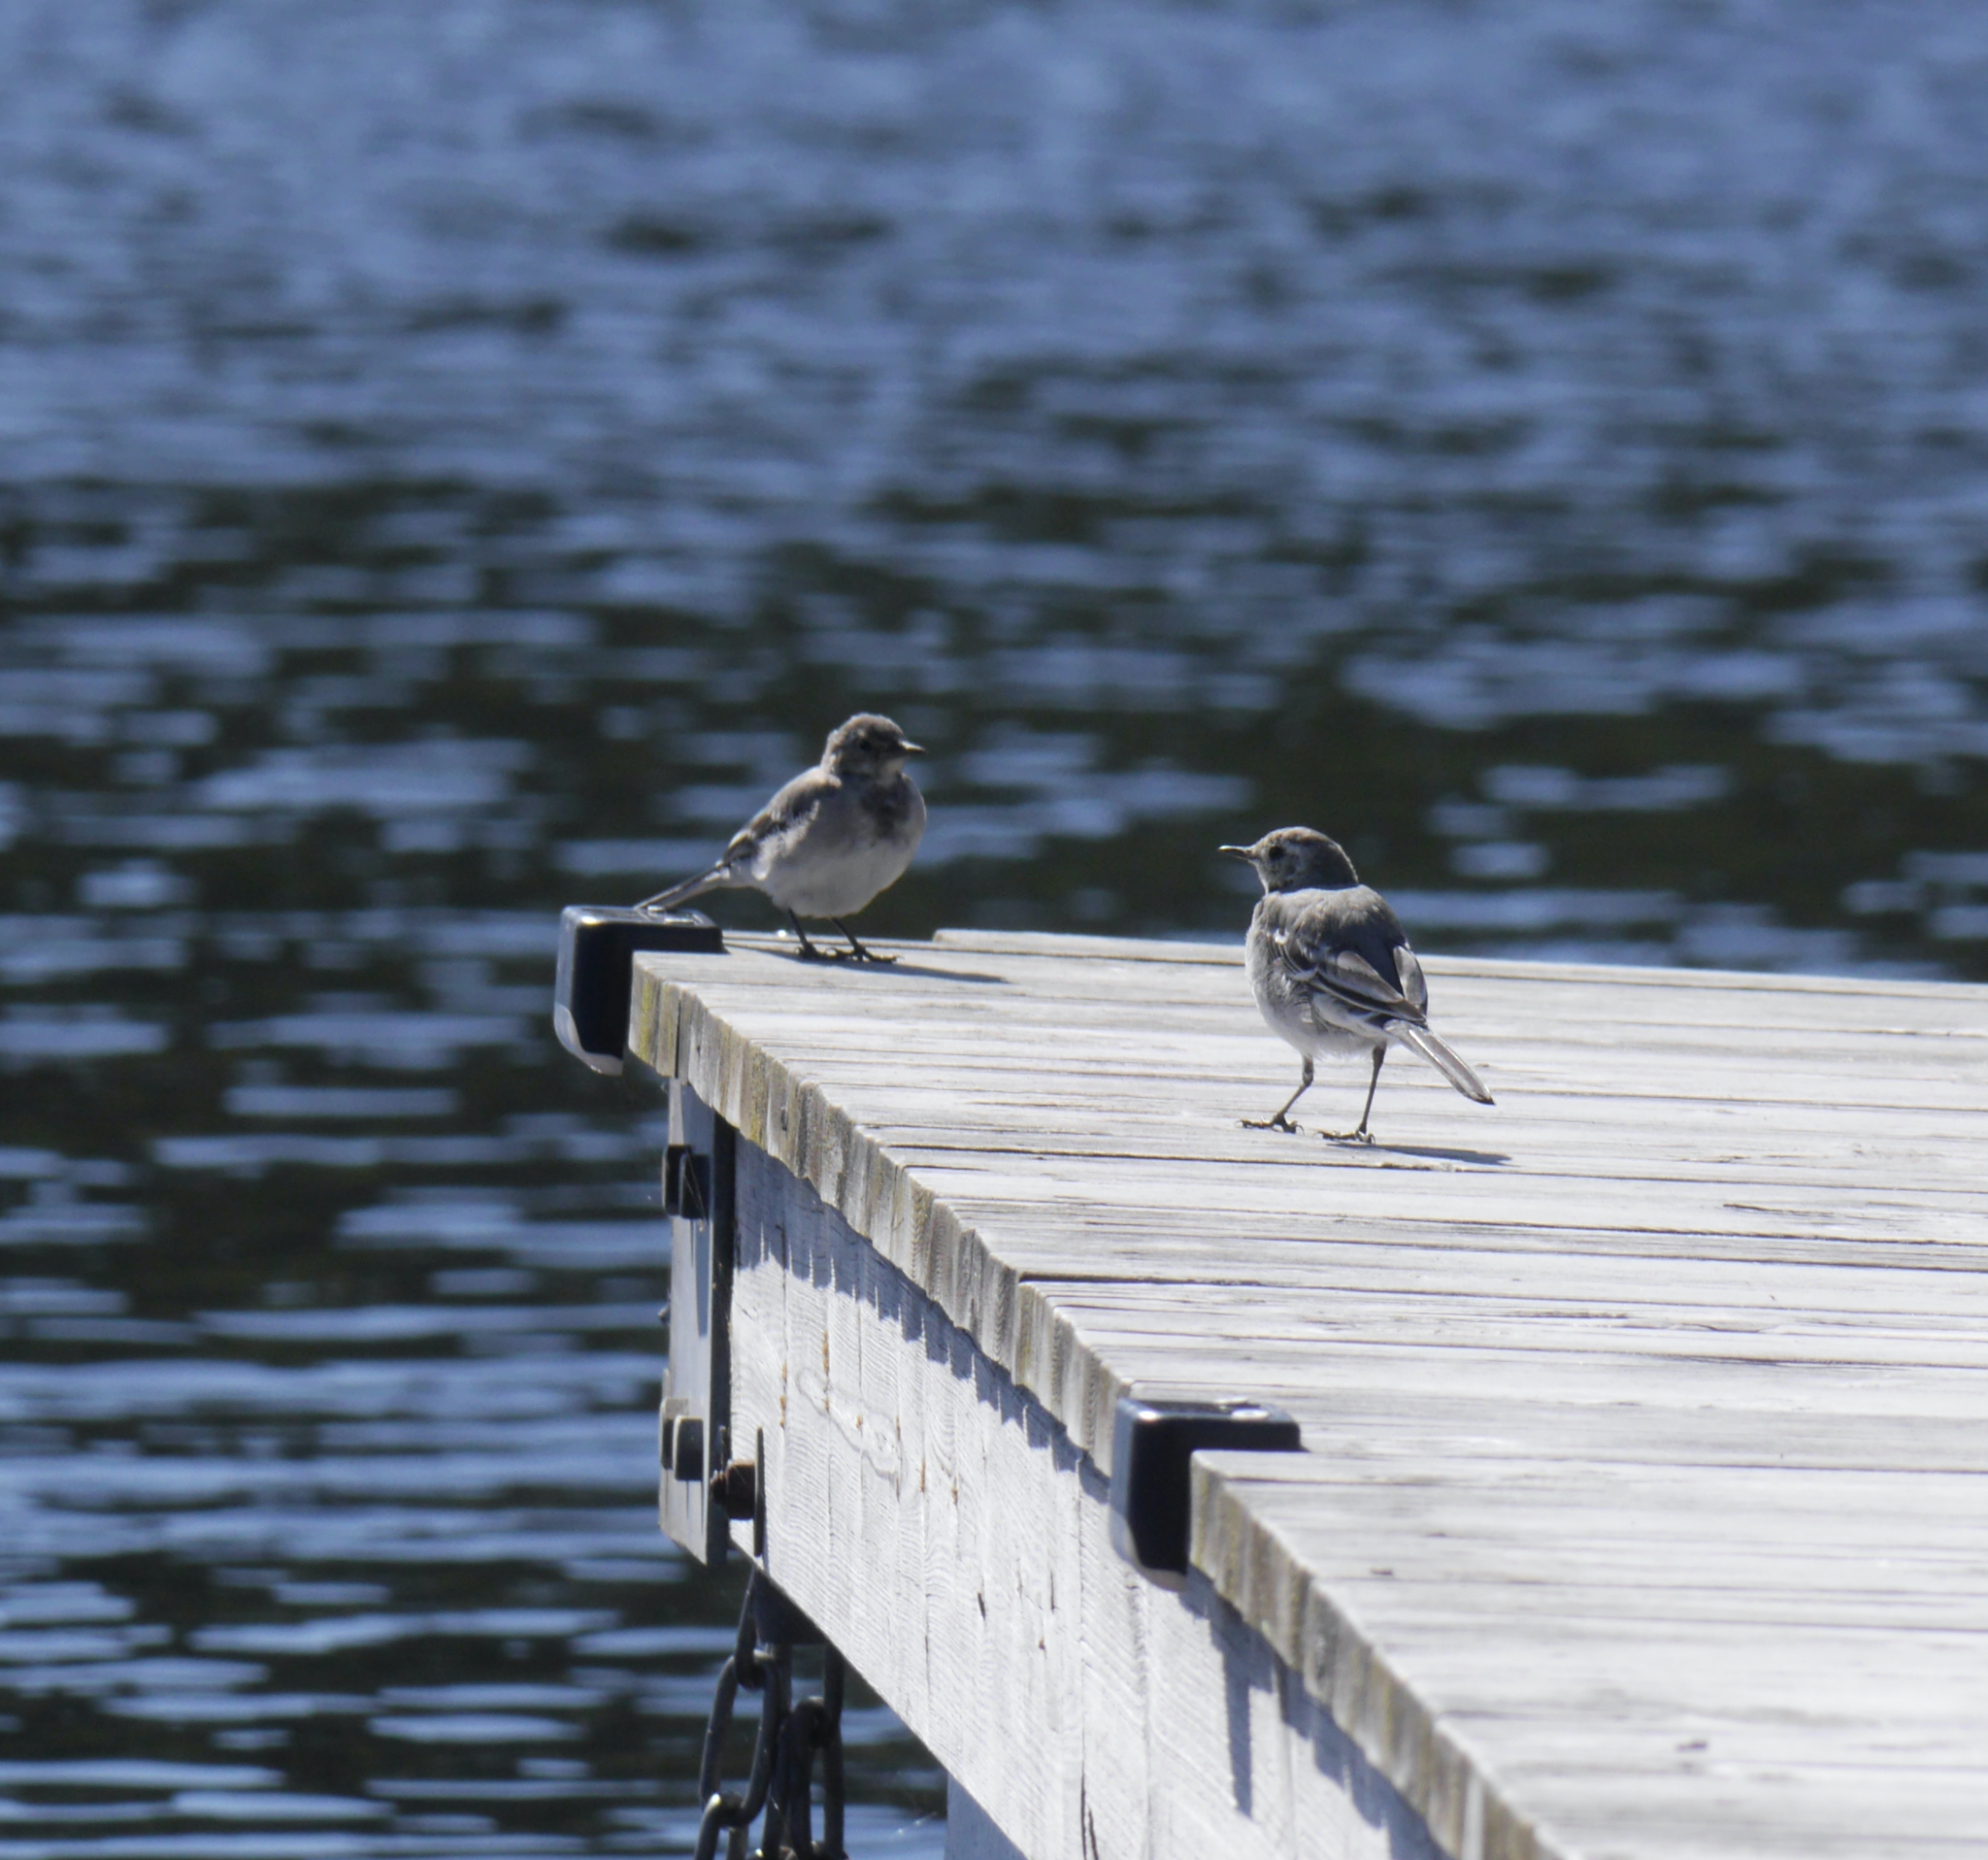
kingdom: Animalia
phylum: Chordata
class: Aves
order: Passeriformes
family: Motacillidae
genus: Motacilla
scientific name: Motacilla alba
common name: White wagtail
